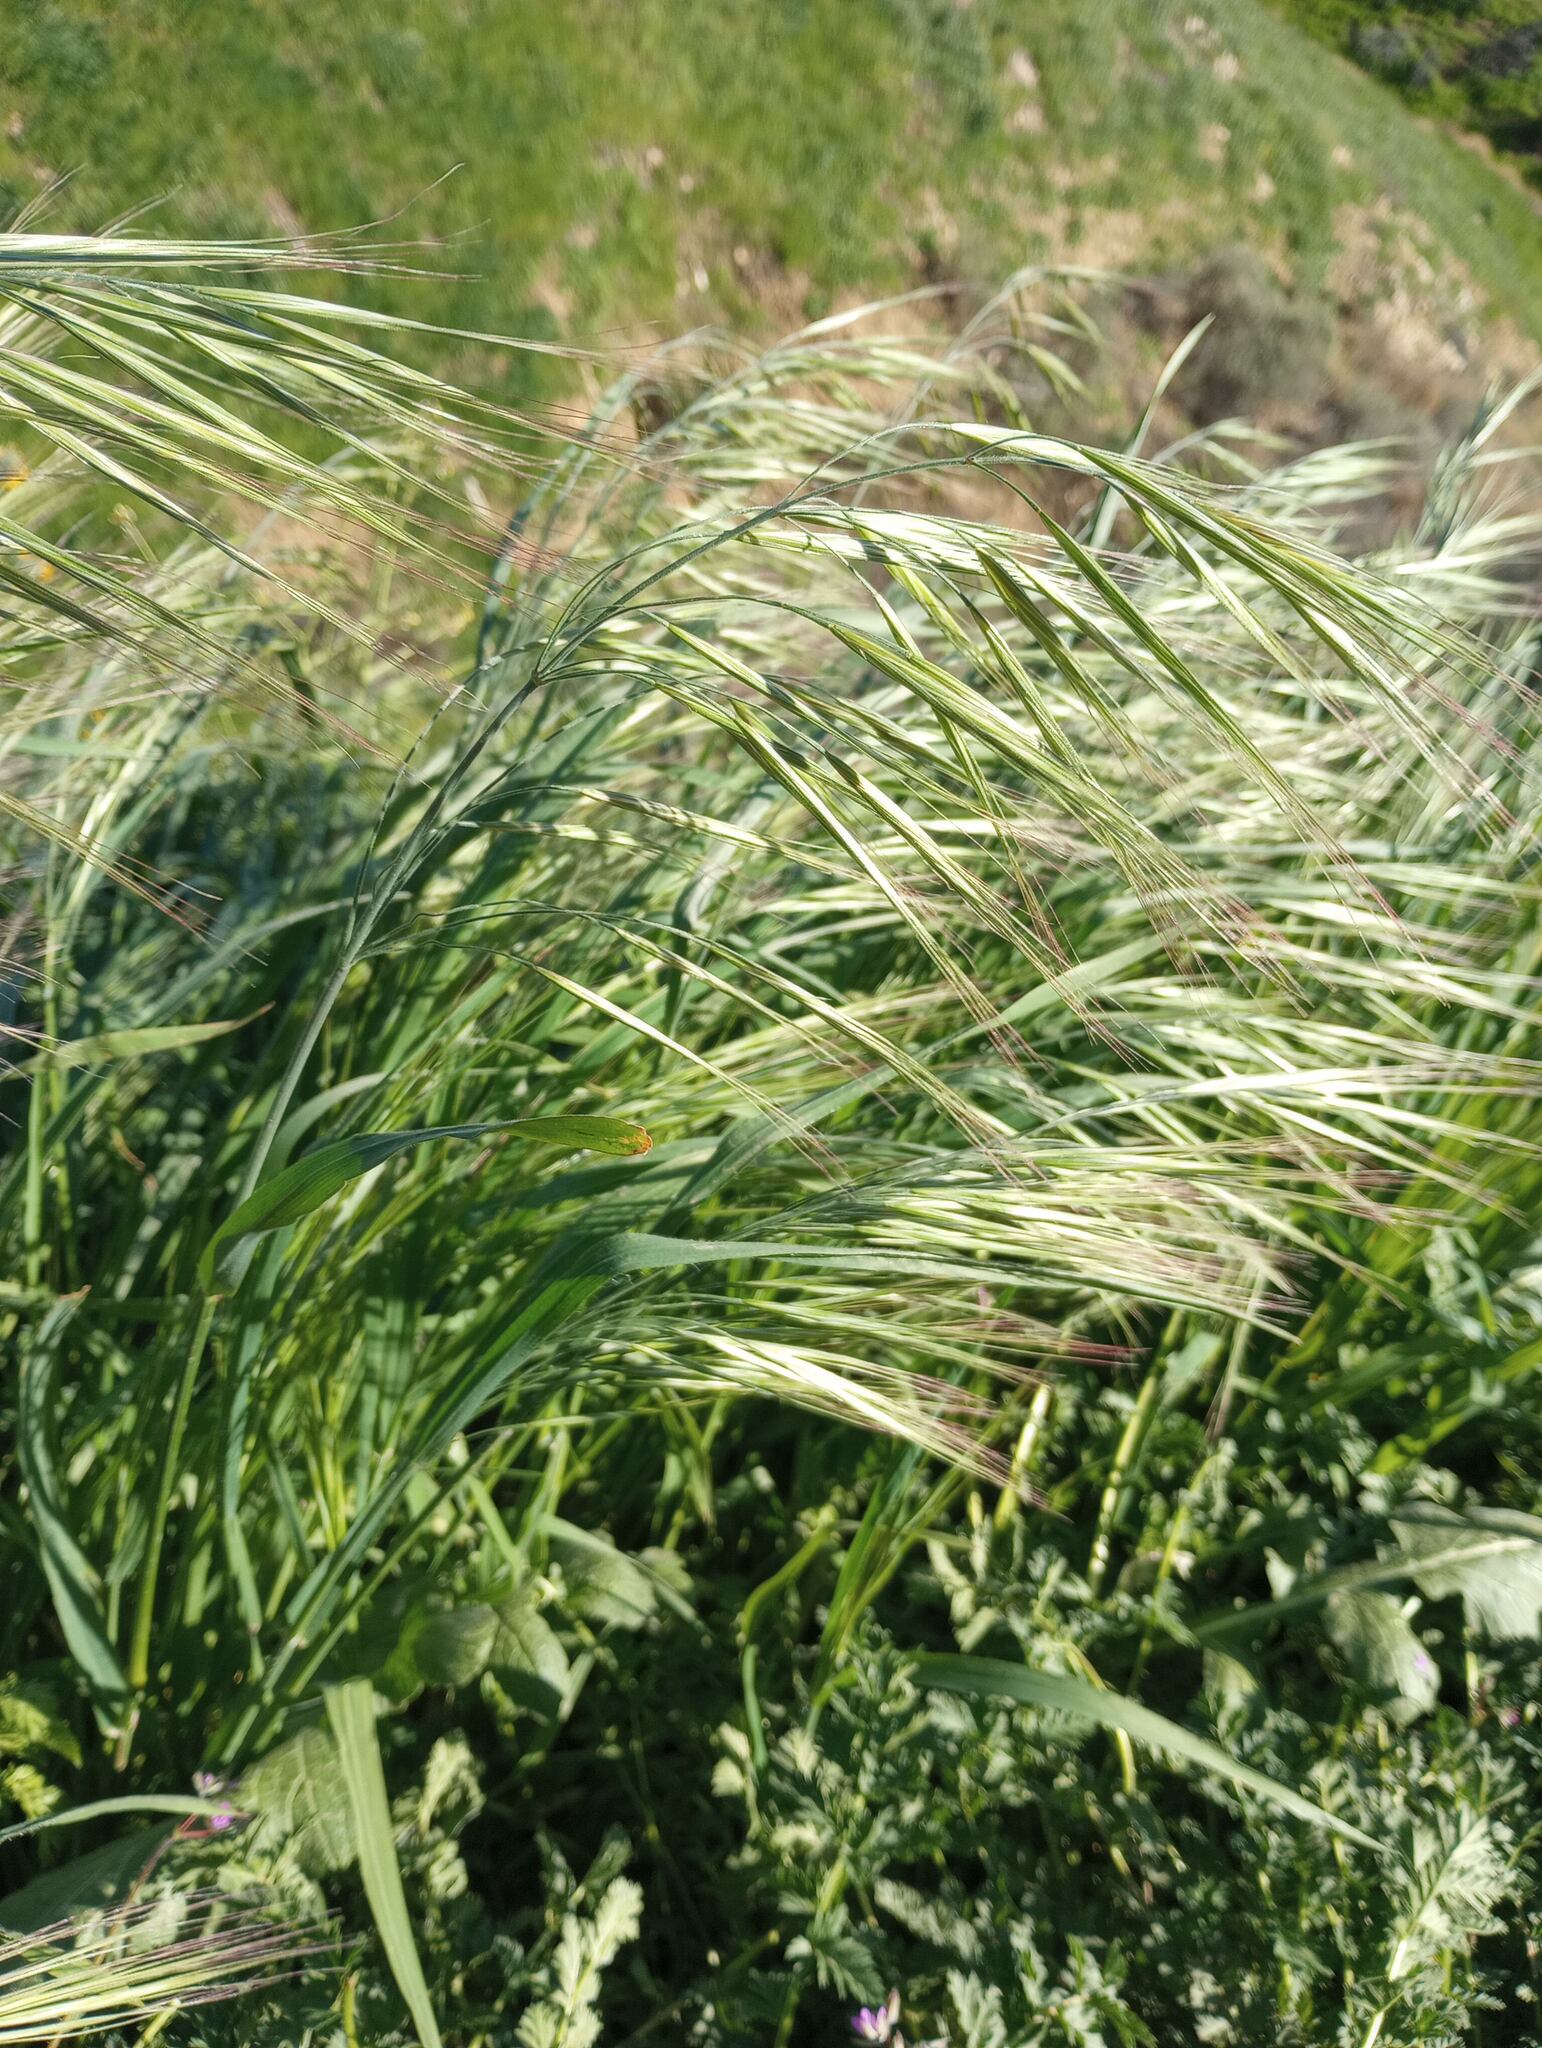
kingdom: Plantae
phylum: Tracheophyta
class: Liliopsida
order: Poales
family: Poaceae
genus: Bromus
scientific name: Bromus diandrus
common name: Ripgut brome
